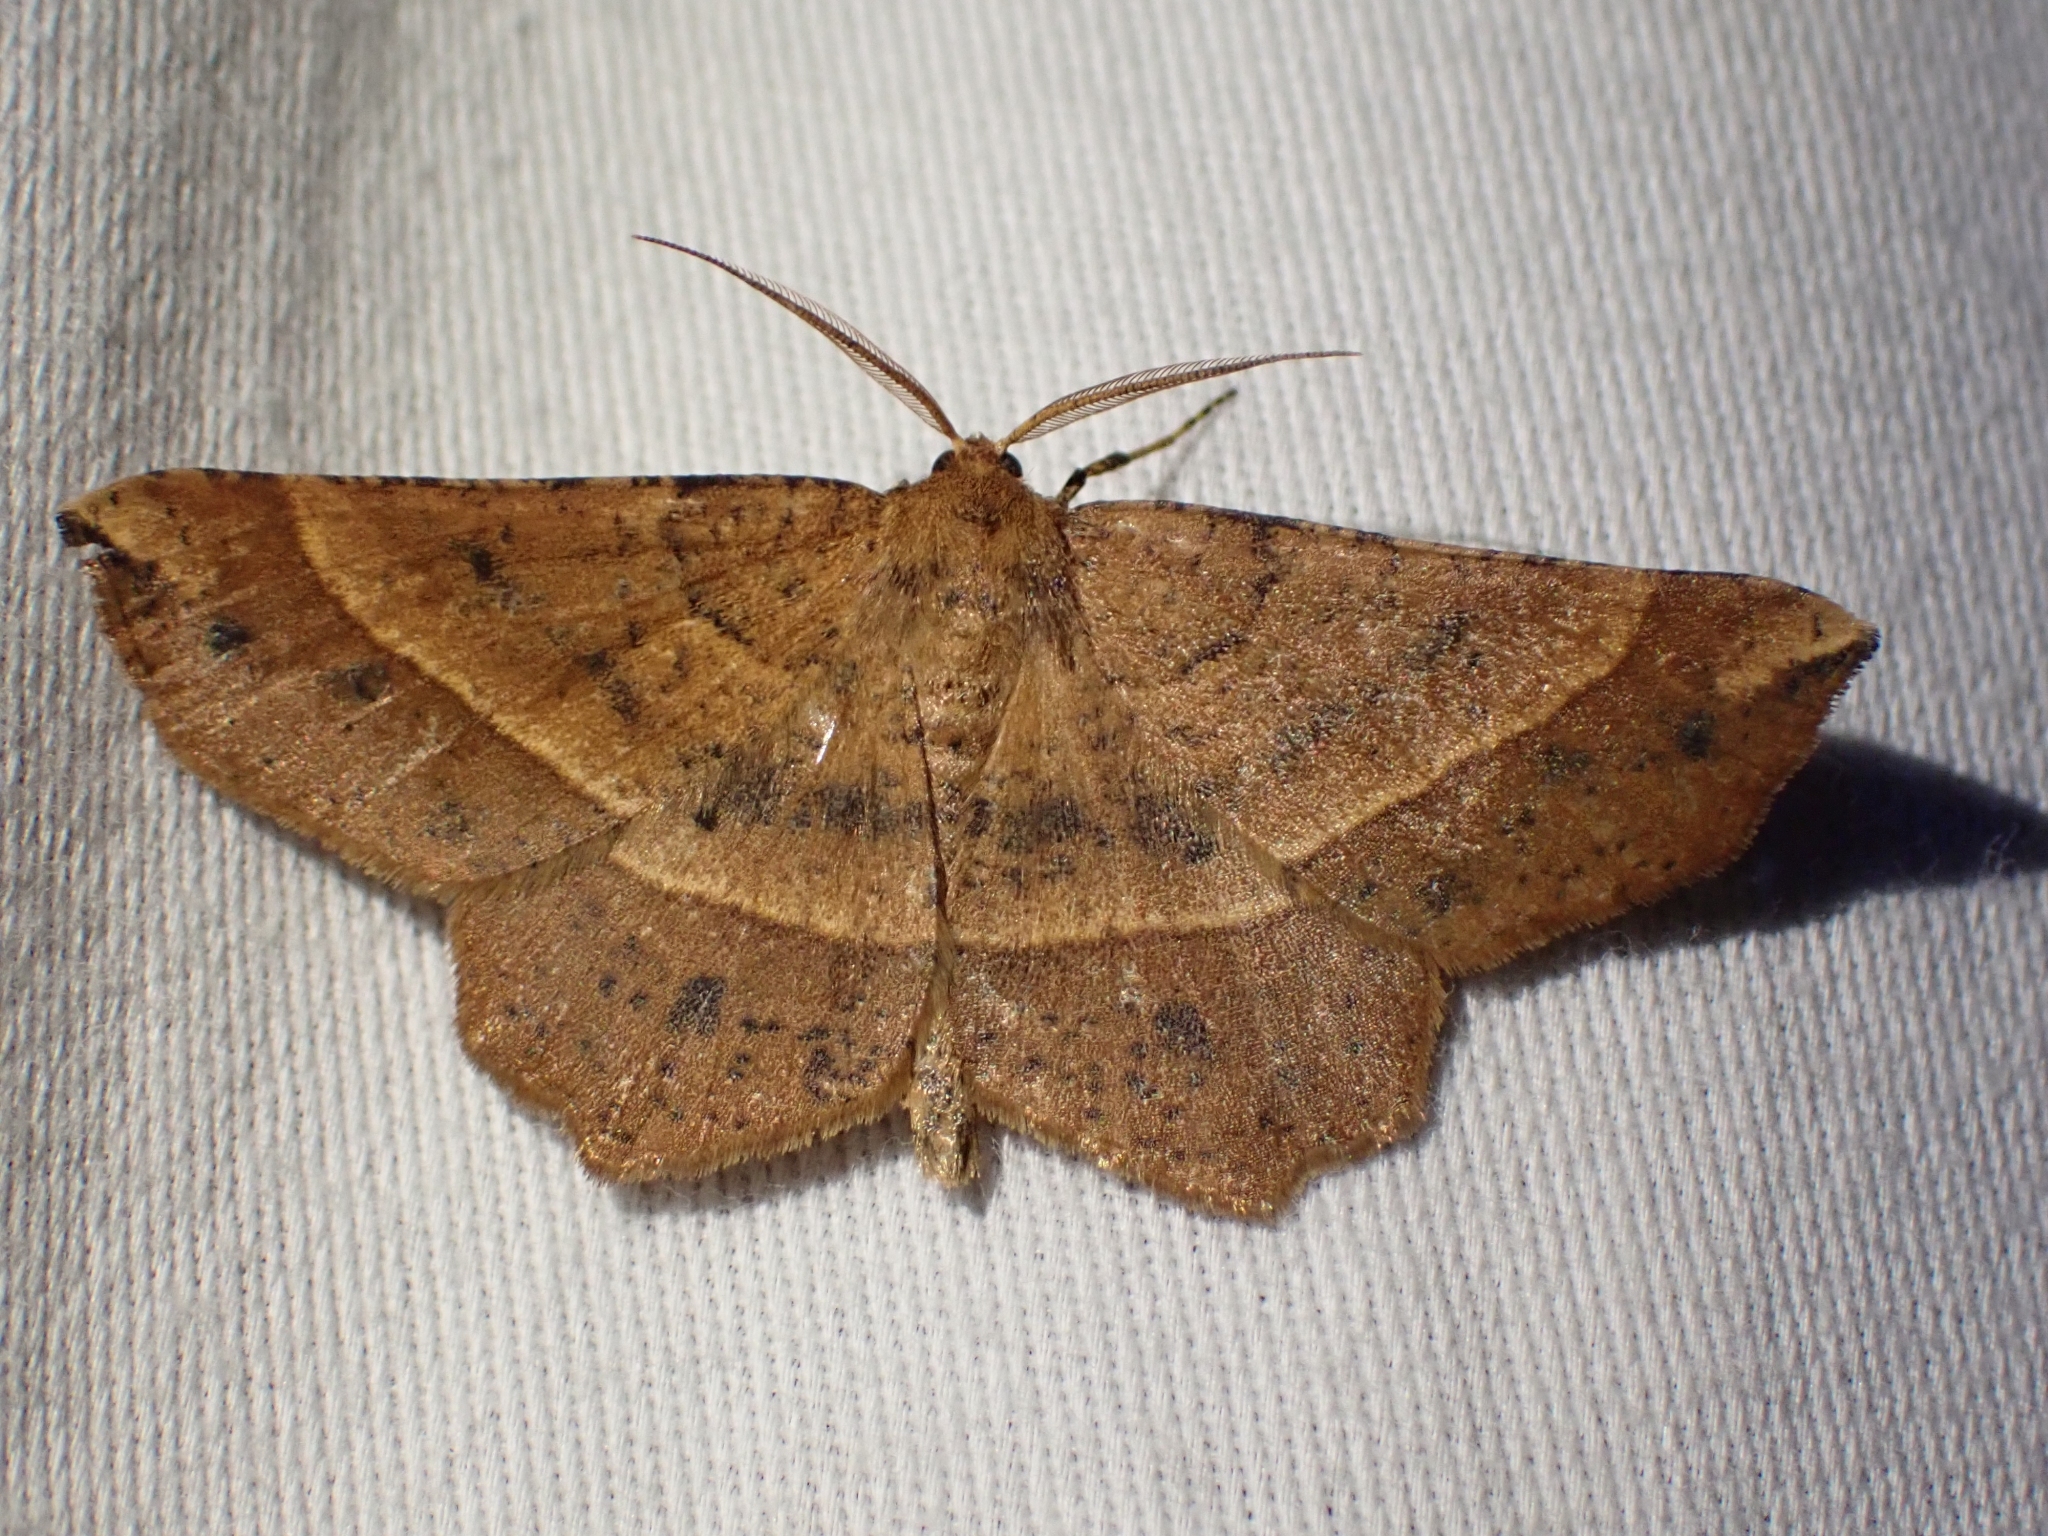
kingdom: Animalia
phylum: Arthropoda
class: Insecta
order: Lepidoptera
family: Geometridae
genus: Euchlaena
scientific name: Euchlaena tigrinaria
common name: Mottled euchlaena moth
